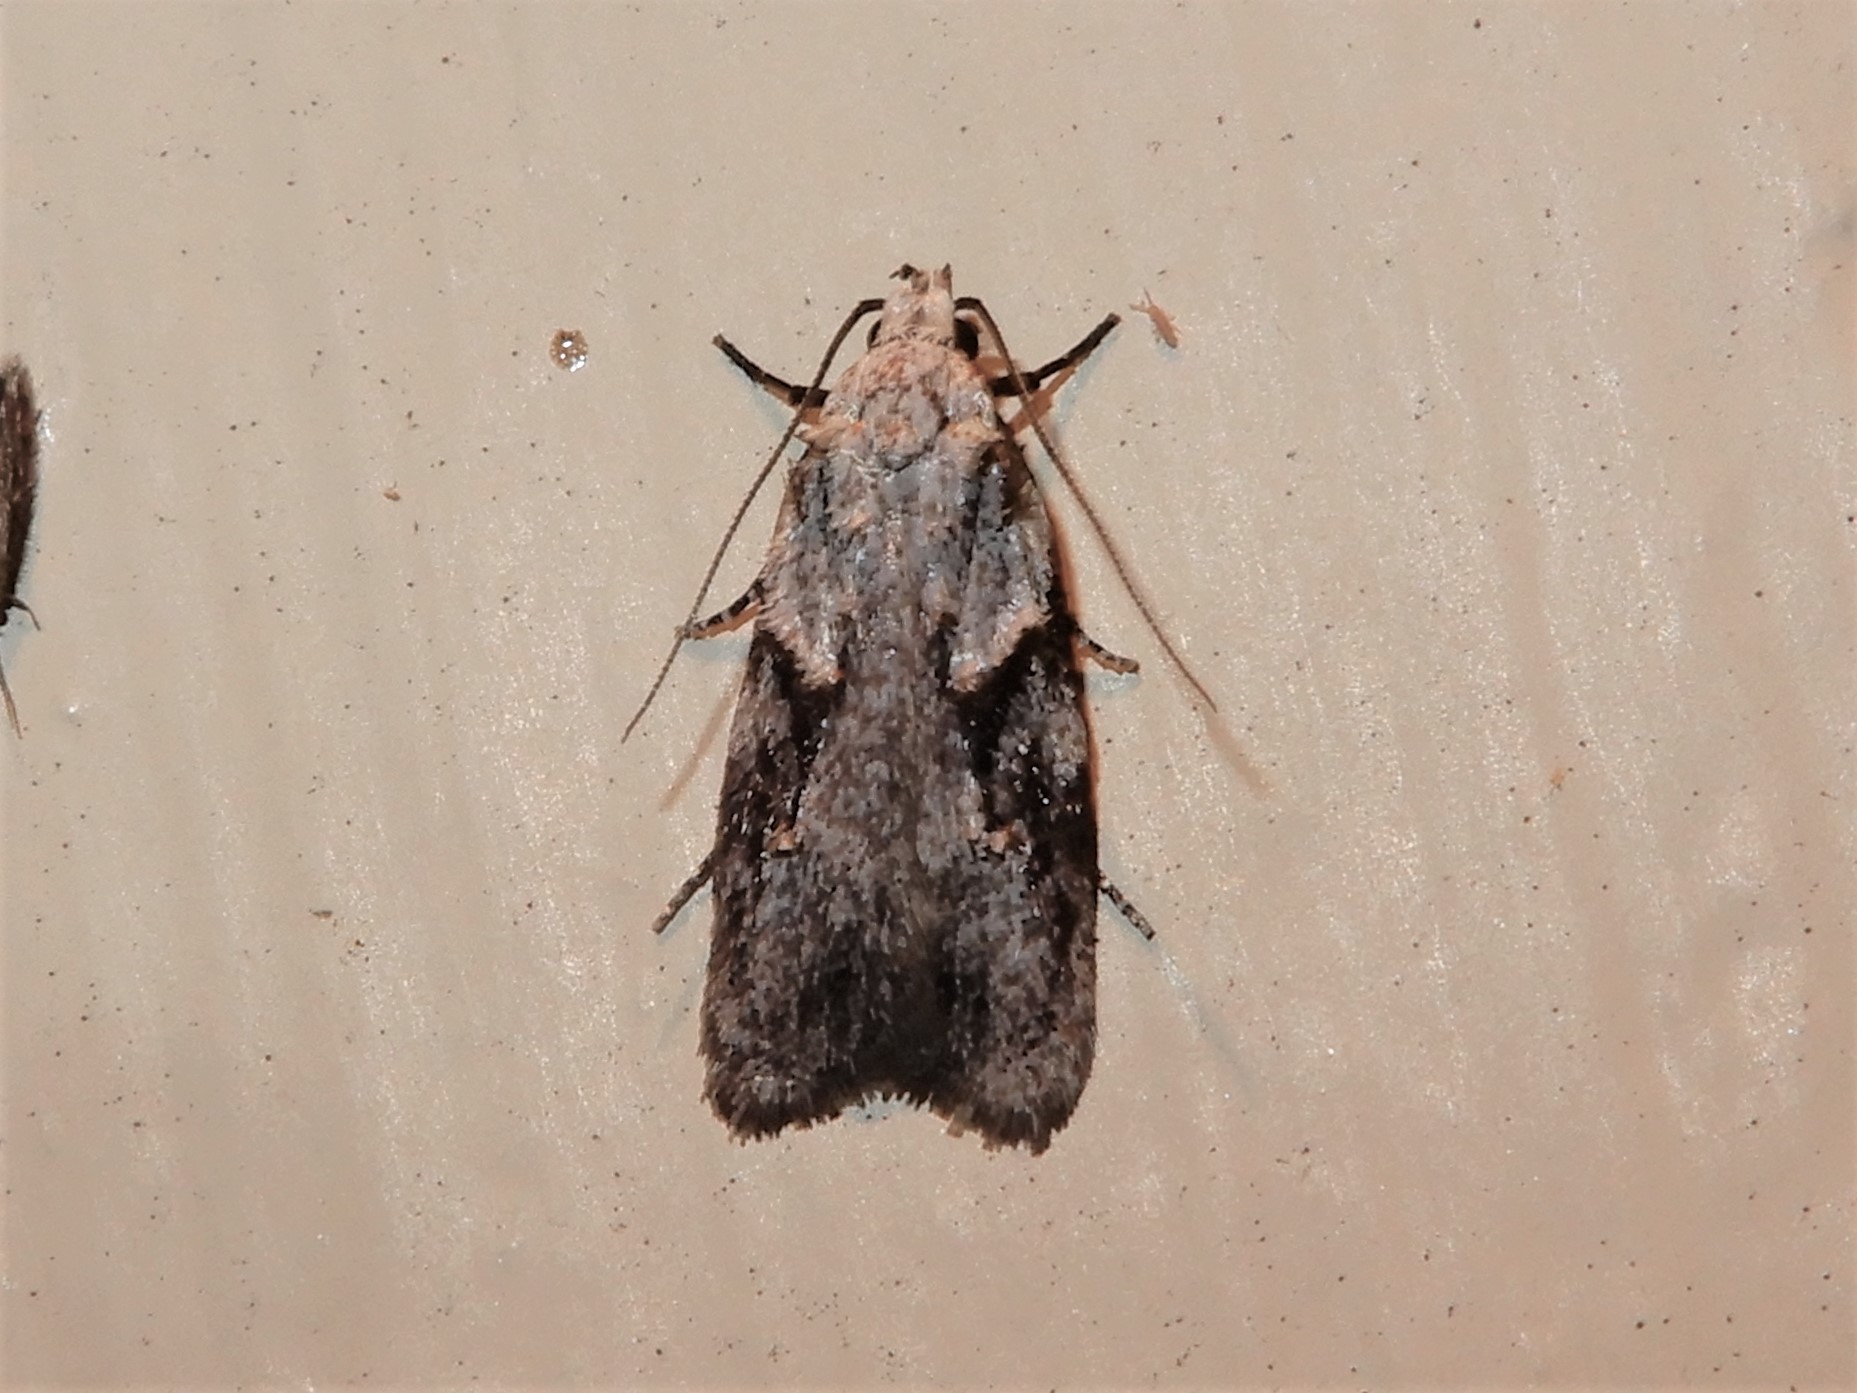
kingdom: Animalia
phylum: Arthropoda
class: Insecta
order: Lepidoptera
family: Oecophoridae
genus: Izatha
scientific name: Izatha mesoschista
